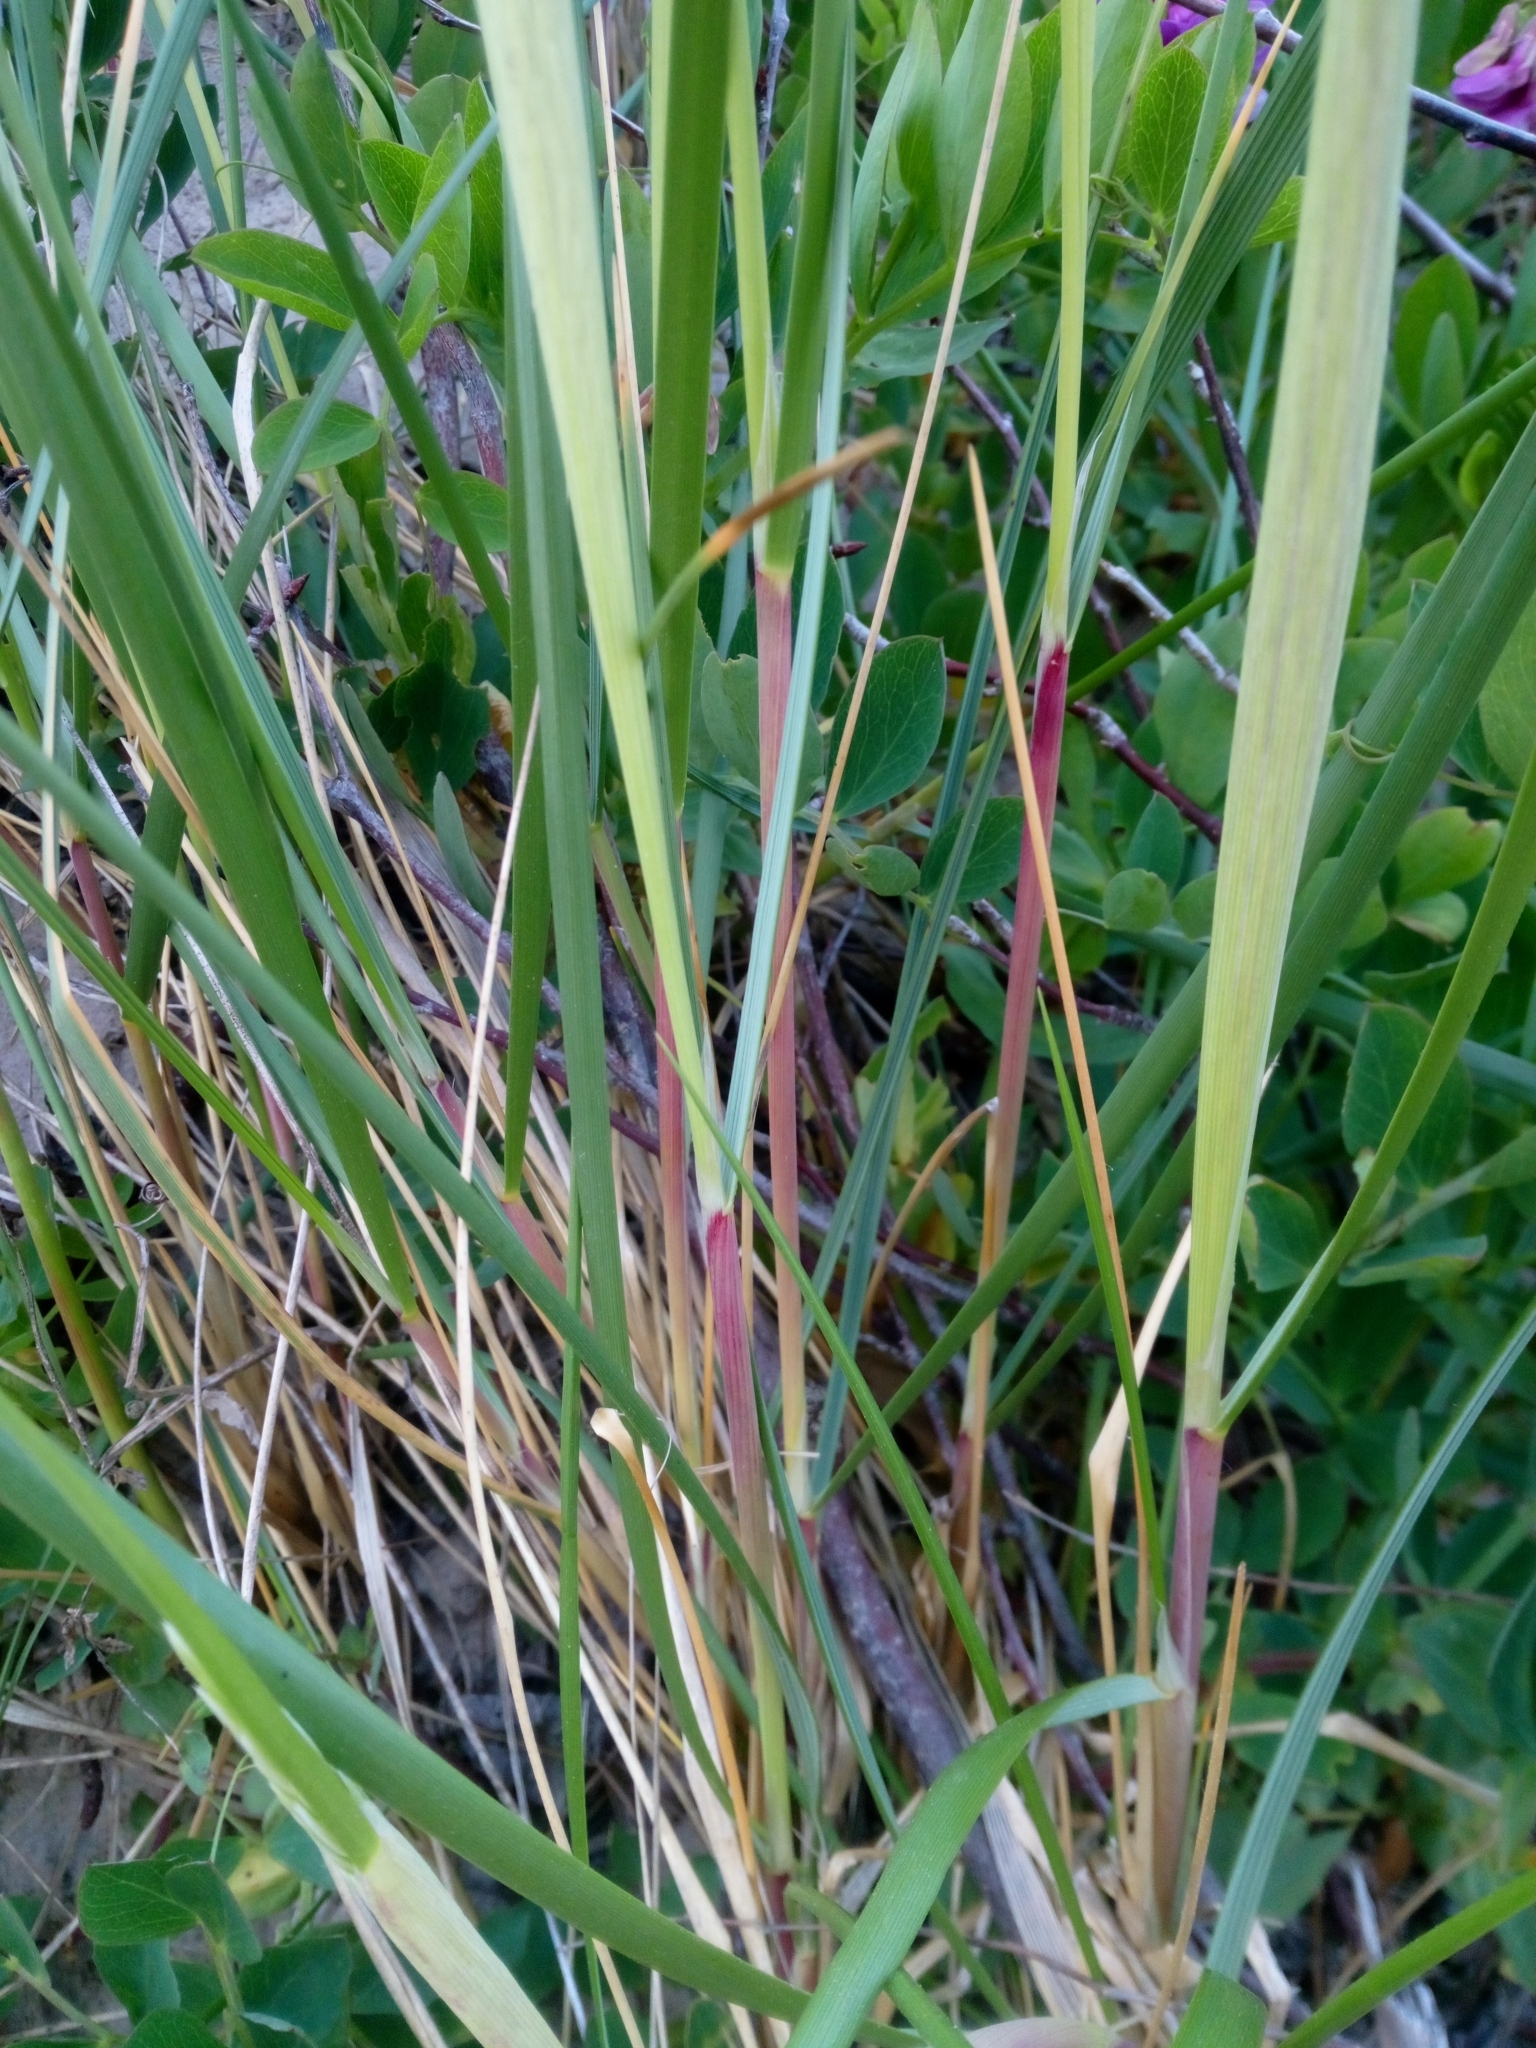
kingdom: Plantae
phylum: Tracheophyta
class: Liliopsida
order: Poales
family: Poaceae
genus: Calamagrostis
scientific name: Calamagrostis arenaria
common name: European beachgrass
